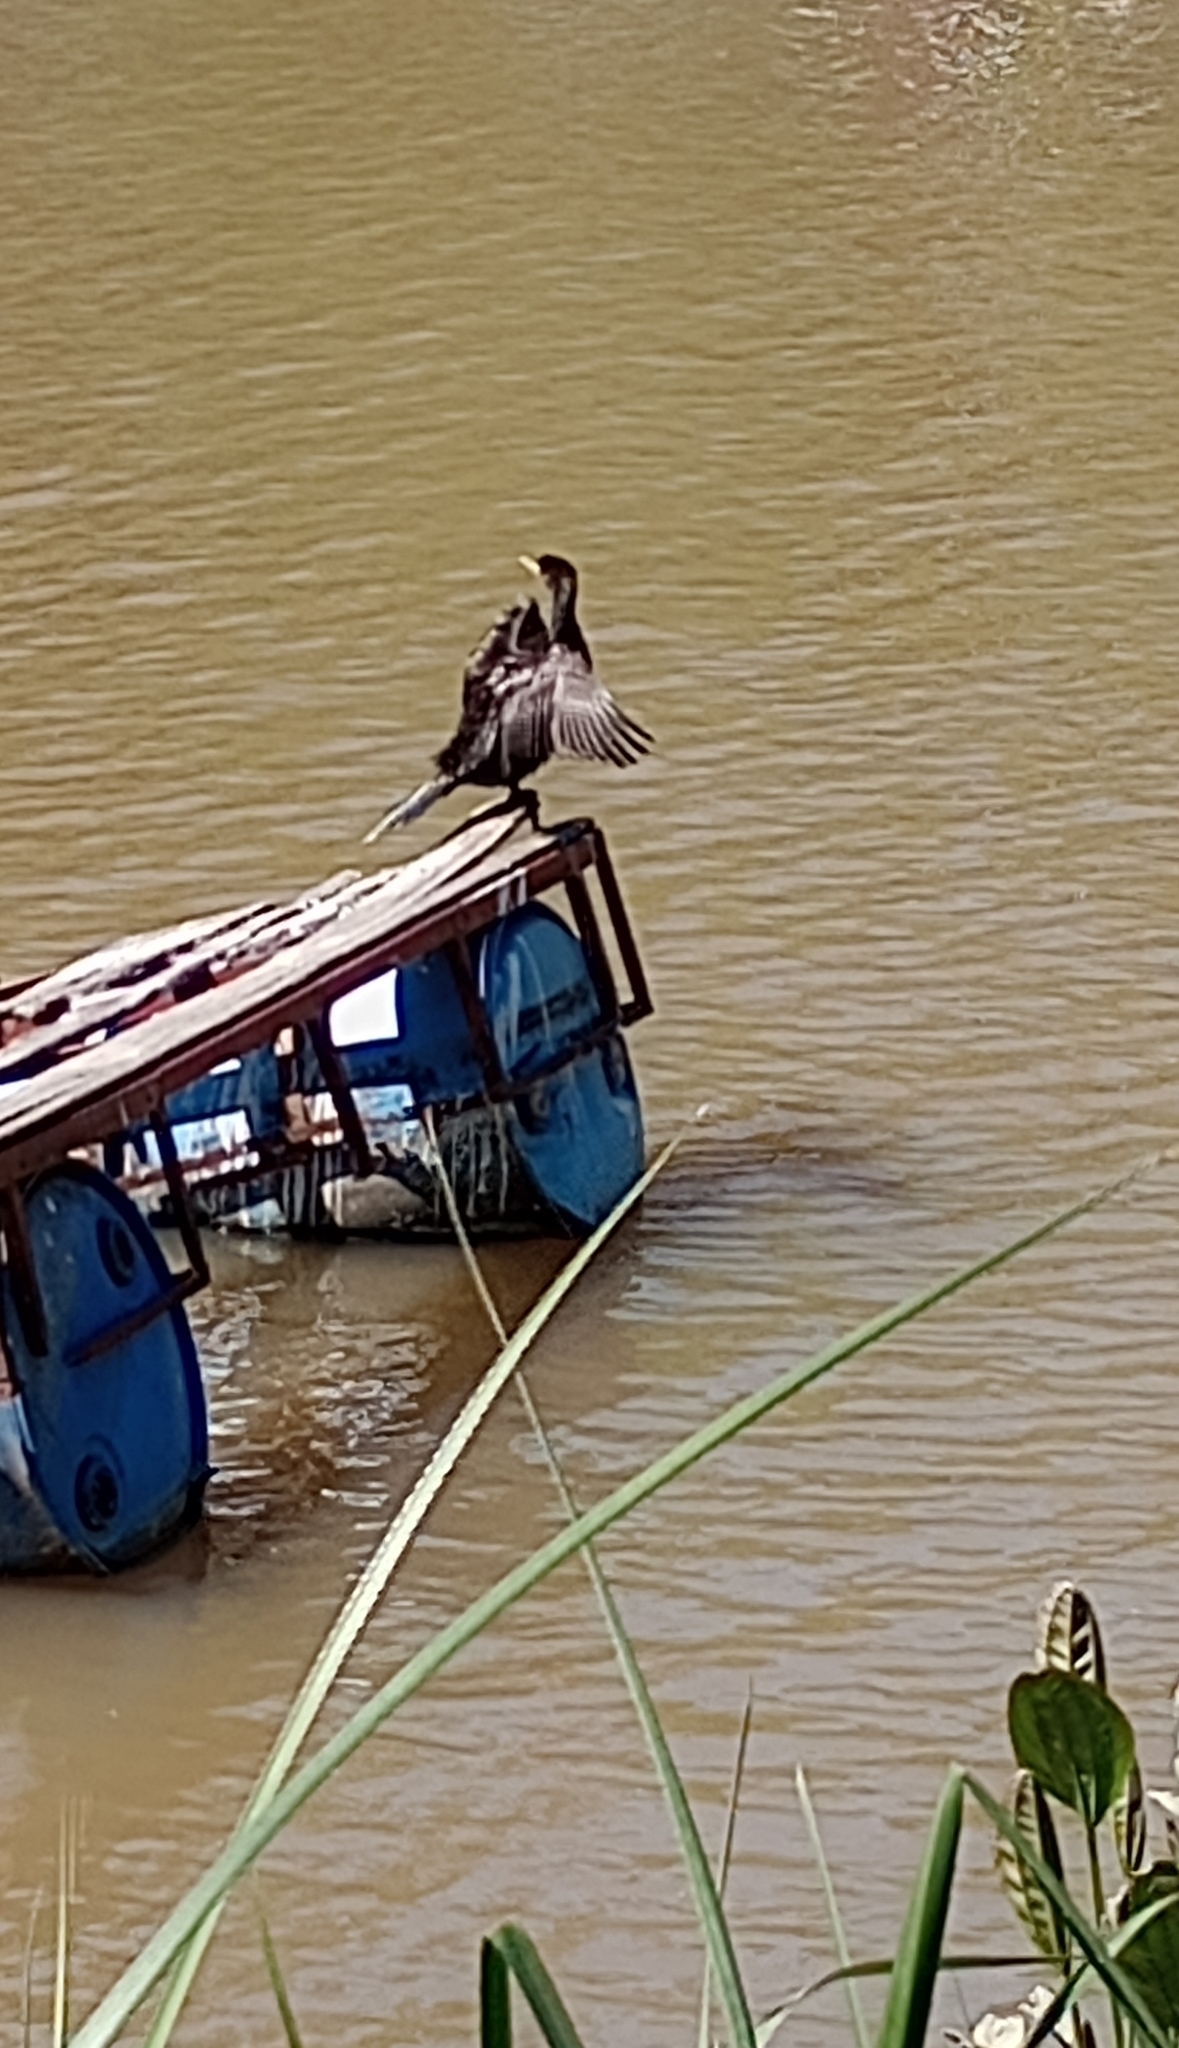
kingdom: Animalia
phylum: Chordata
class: Aves
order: Suliformes
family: Phalacrocoracidae
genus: Phalacrocorax
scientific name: Phalacrocorax brasilianus
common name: Neotropic cormorant
